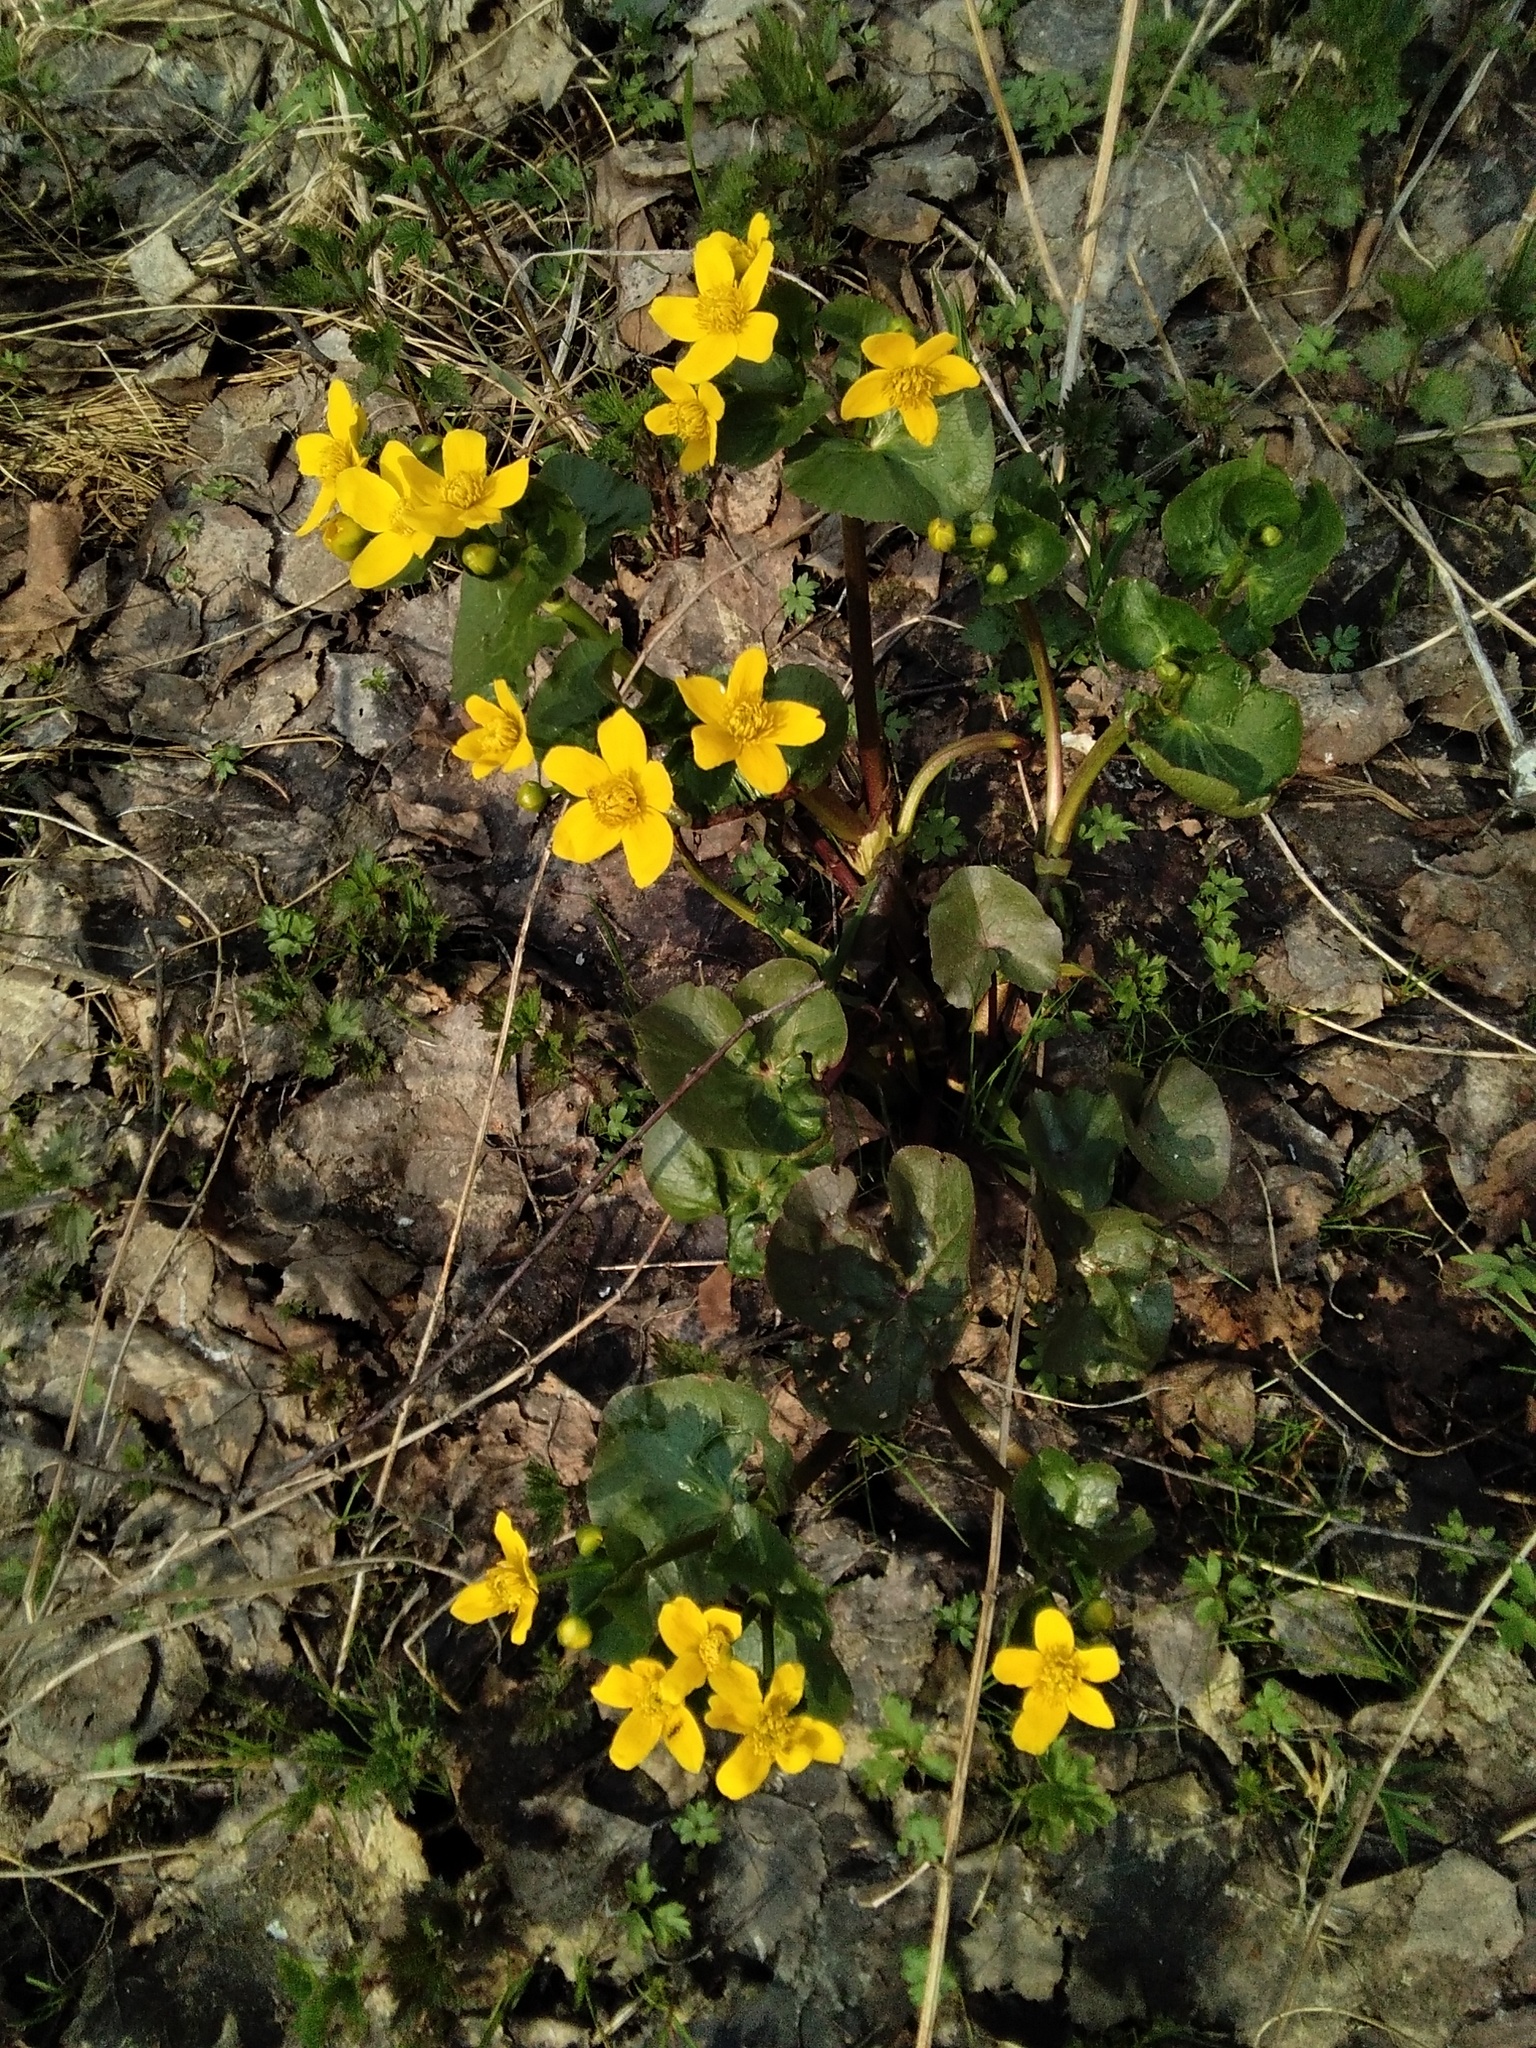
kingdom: Plantae
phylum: Tracheophyta
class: Magnoliopsida
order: Ranunculales
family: Ranunculaceae
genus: Caltha
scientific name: Caltha palustris
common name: Marsh marigold
